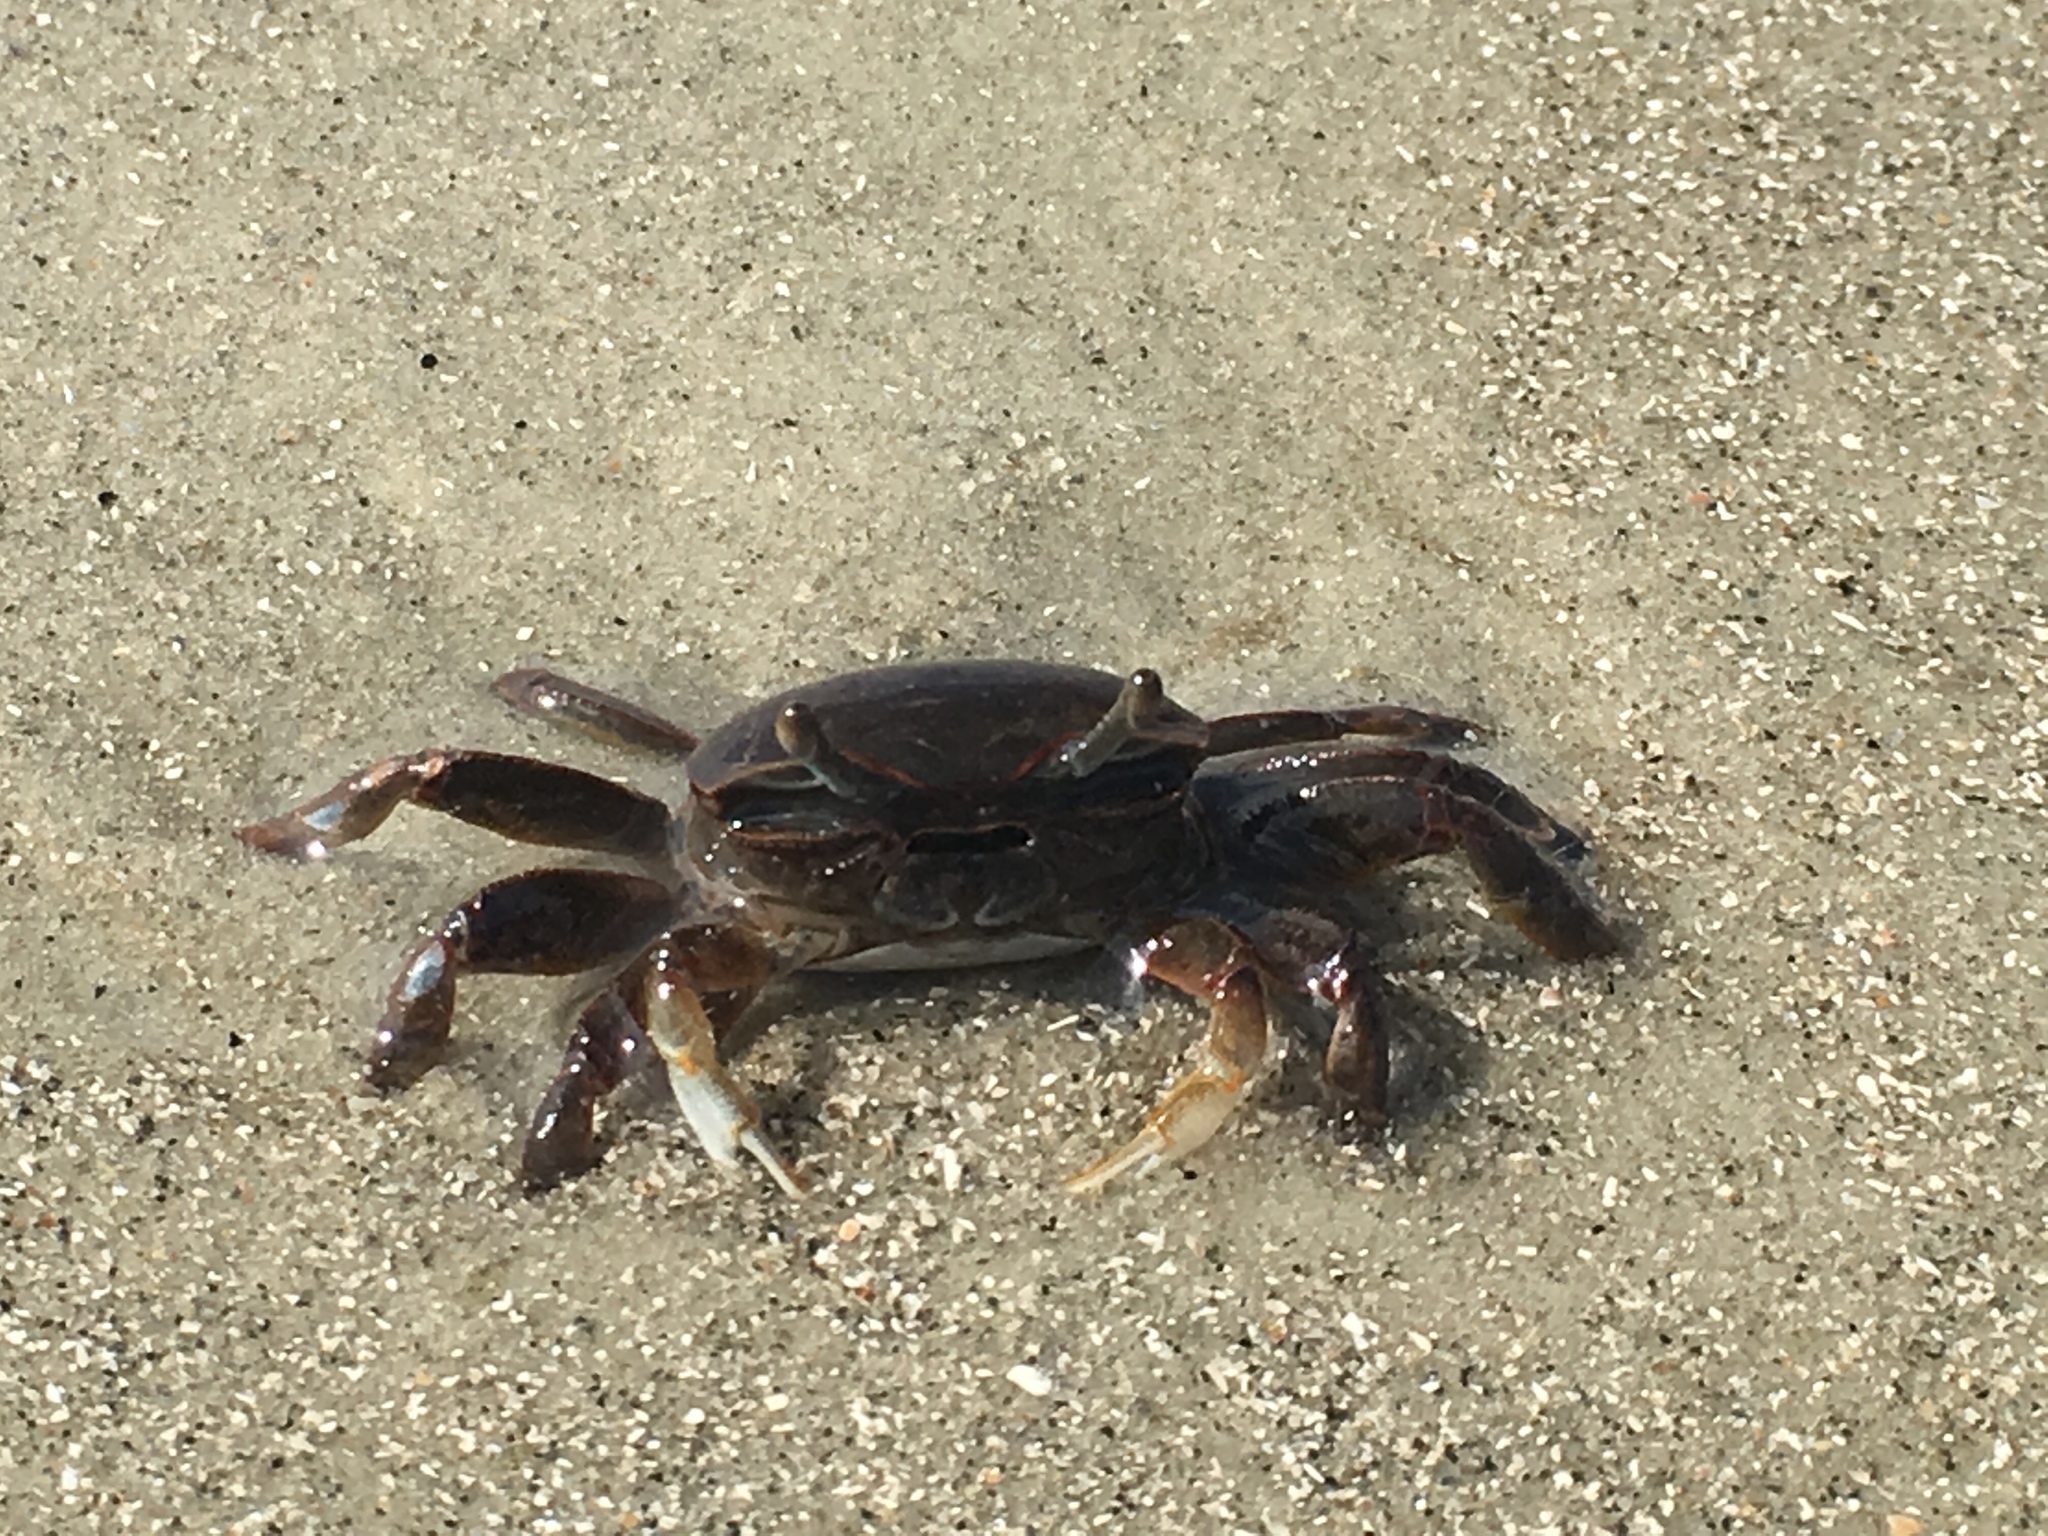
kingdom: Animalia
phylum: Arthropoda
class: Malacostraca
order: Decapoda
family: Ocypodidae
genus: Minuca
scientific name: Minuca pugnax
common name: Mud fiddler crab
